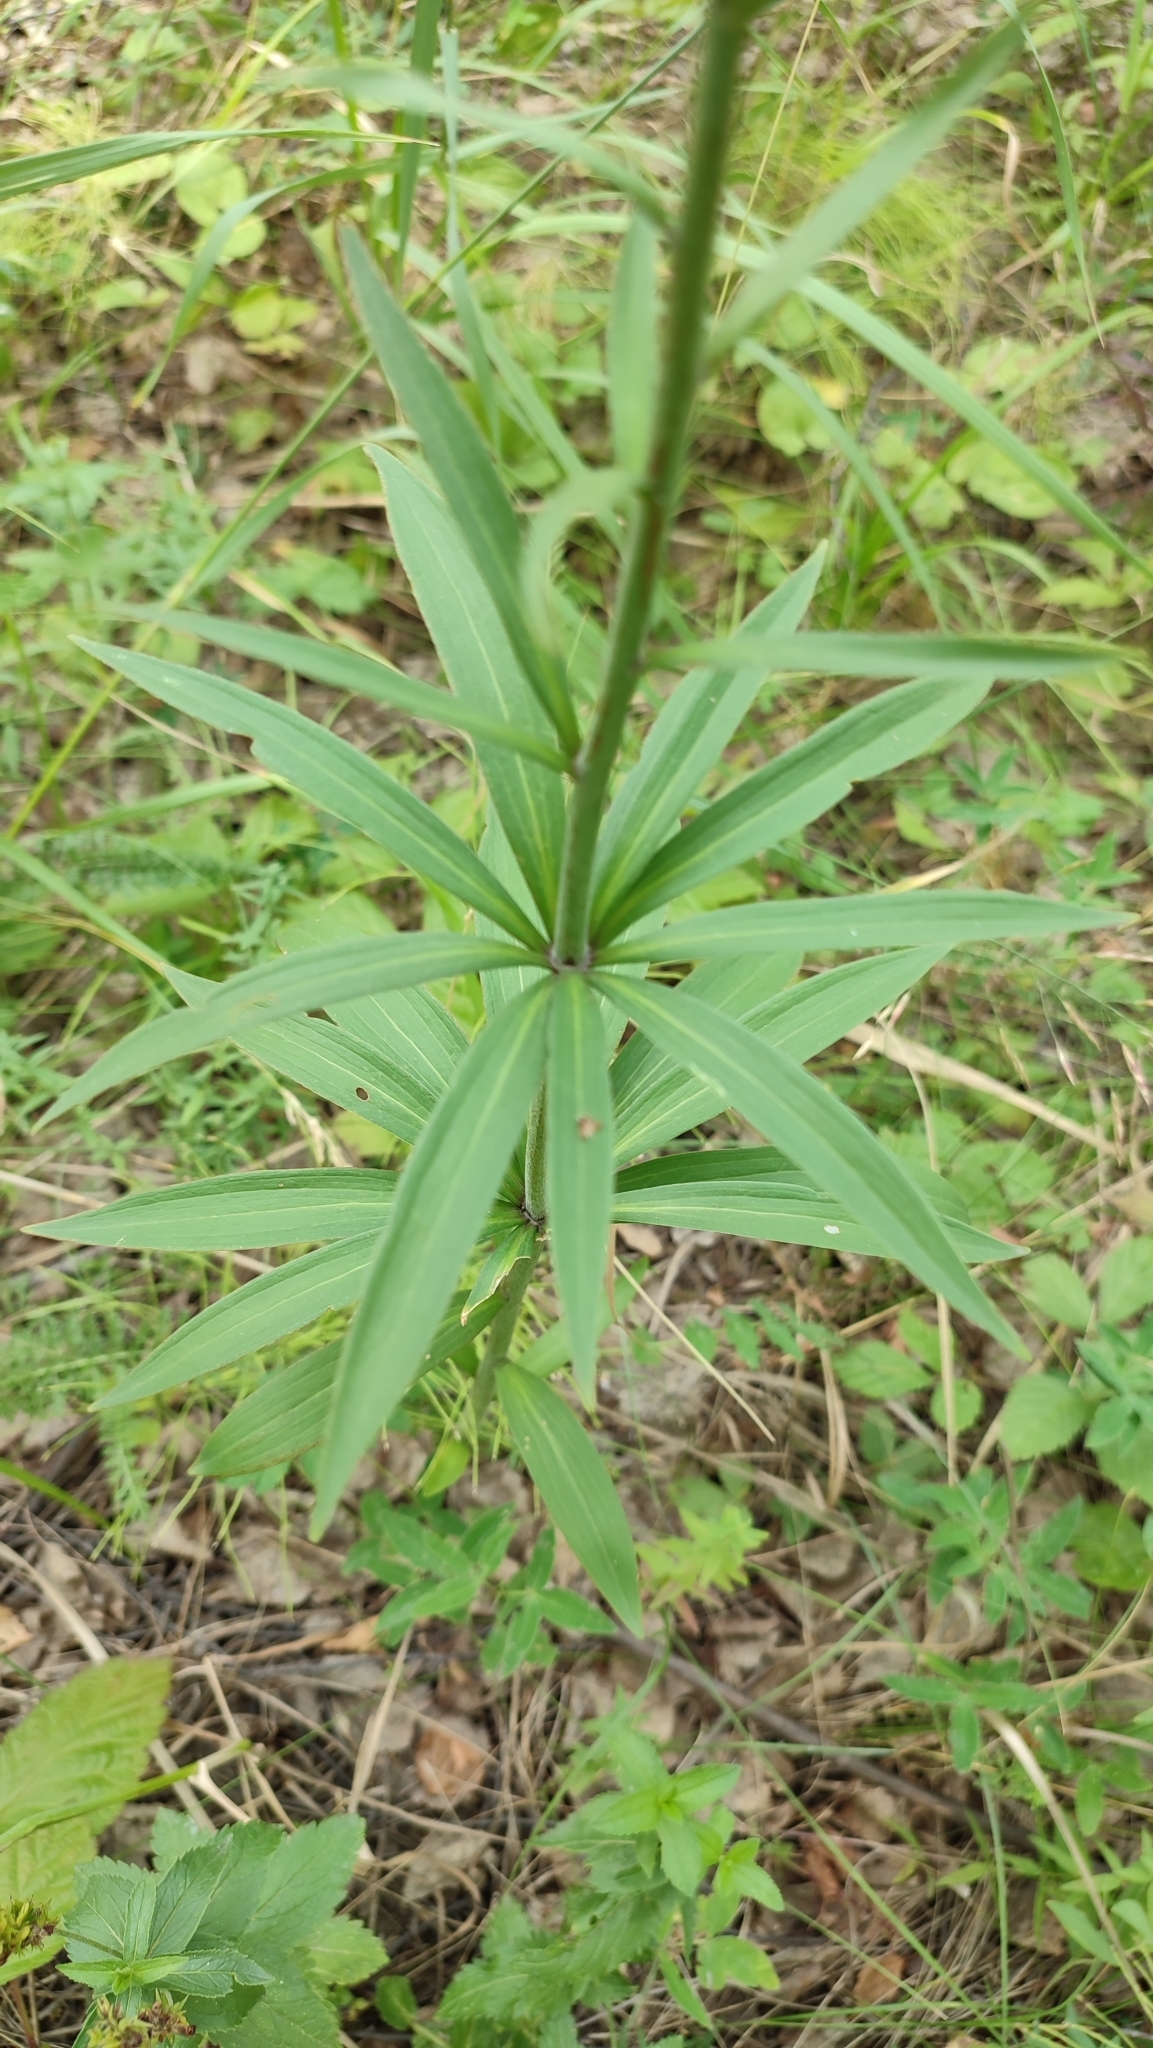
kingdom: Plantae
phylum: Tracheophyta
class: Liliopsida
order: Liliales
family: Liliaceae
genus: Lilium
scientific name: Lilium martagon
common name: Martagon lily
